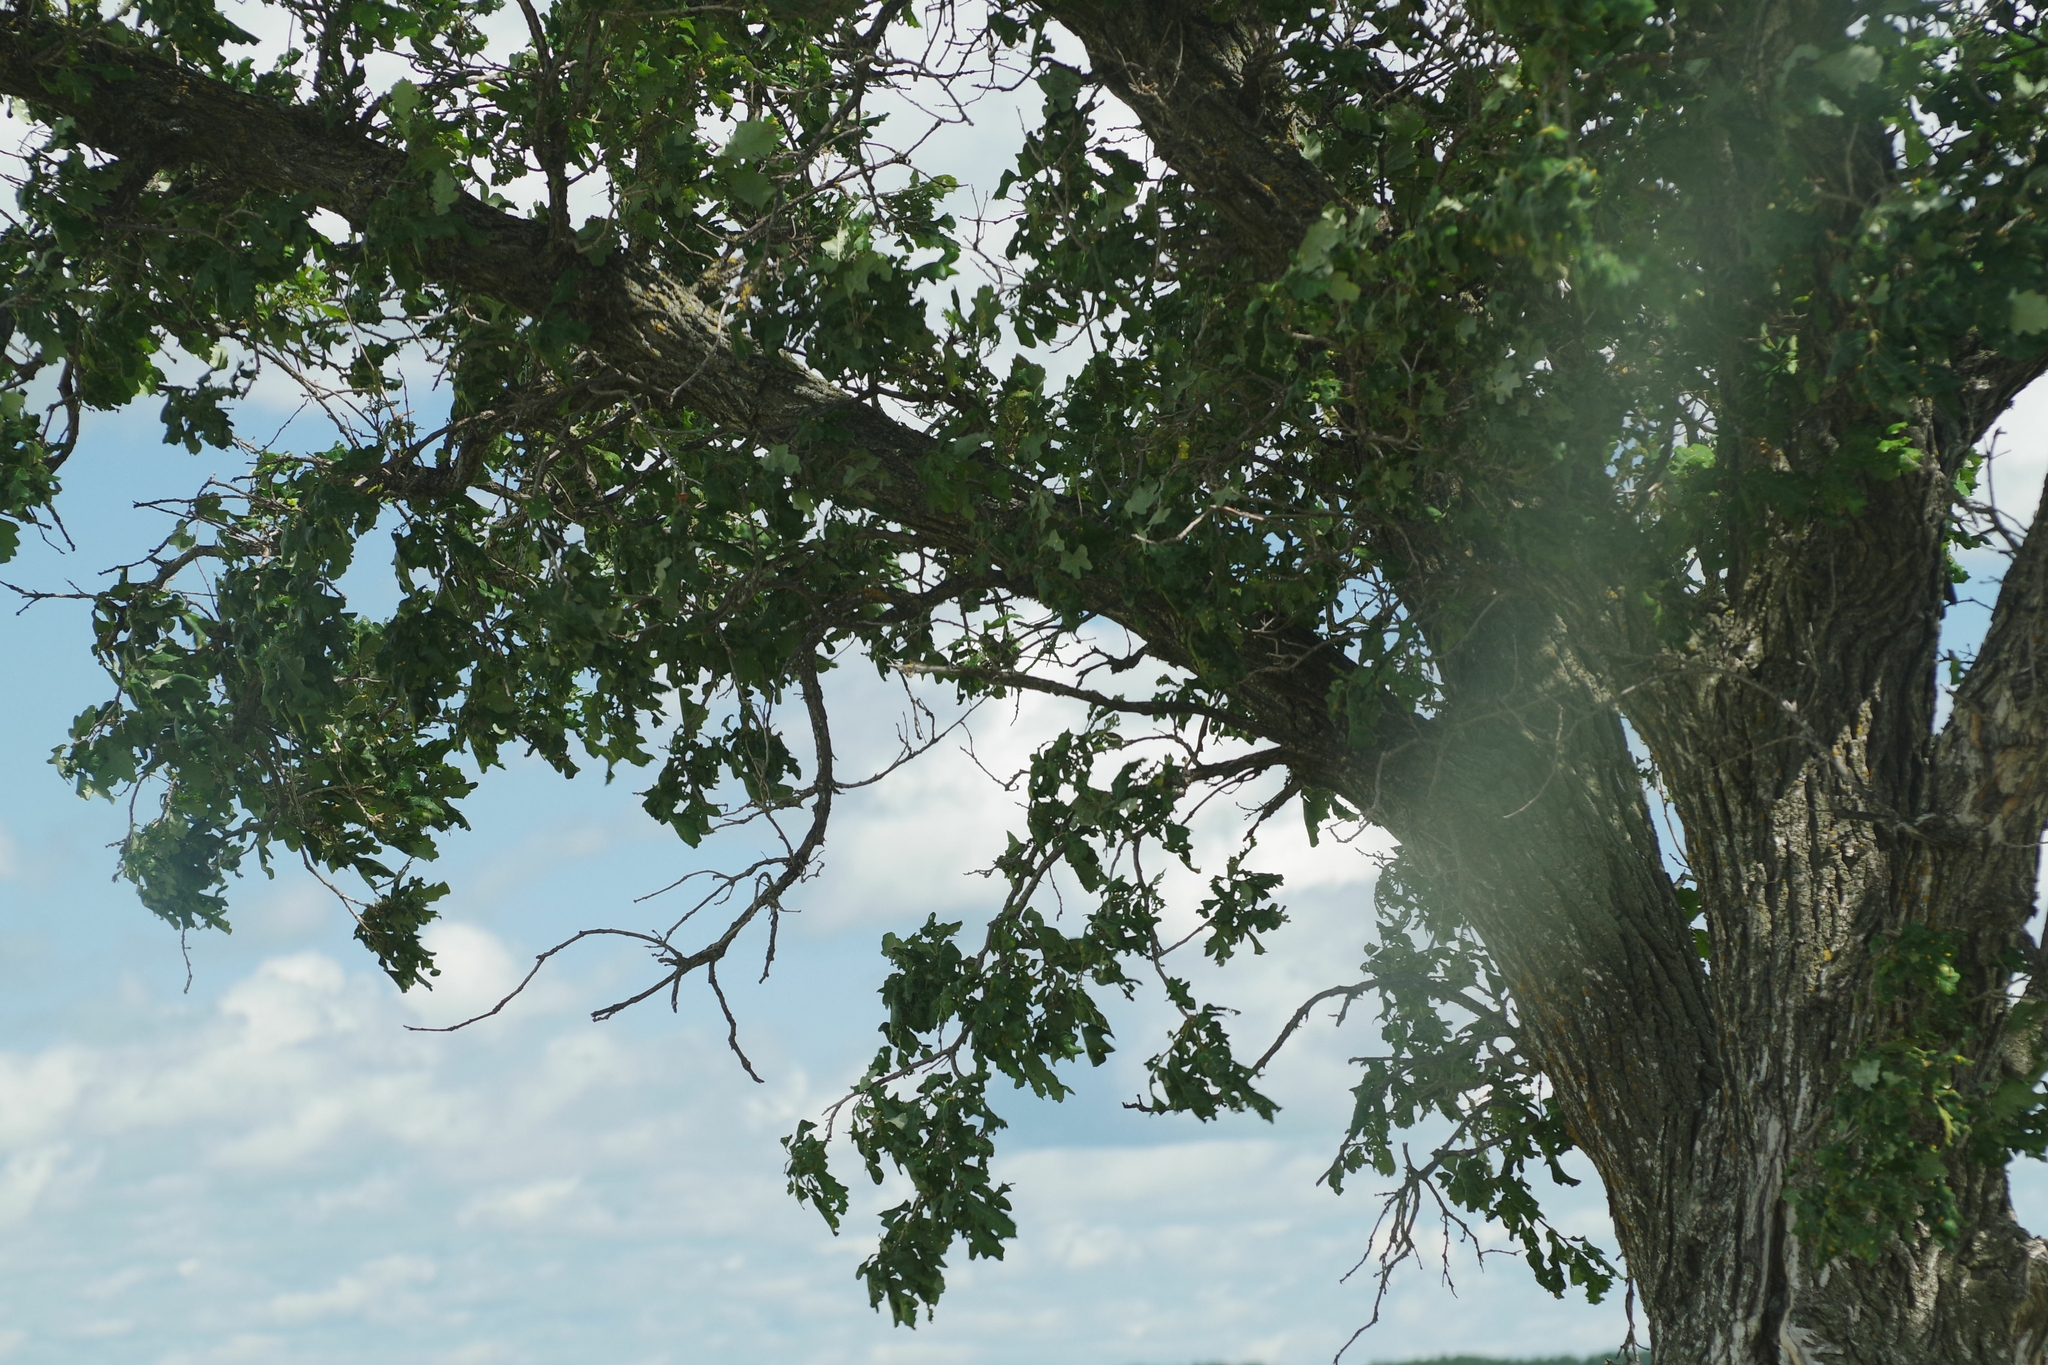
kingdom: Plantae
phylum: Tracheophyta
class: Magnoliopsida
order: Fagales
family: Fagaceae
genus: Quercus
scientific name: Quercus macrocarpa
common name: Bur oak
